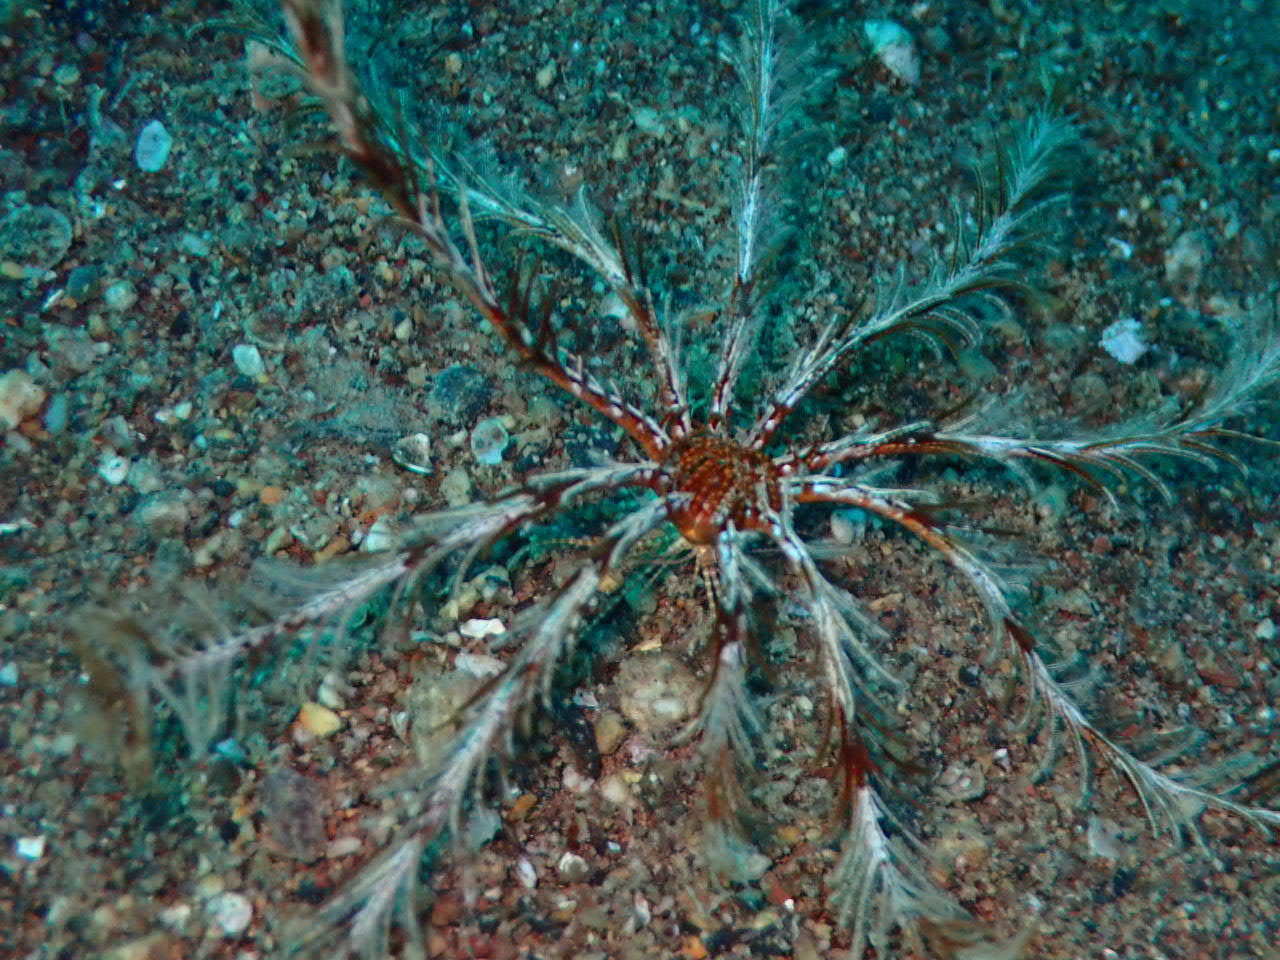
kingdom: Animalia
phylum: Echinodermata
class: Crinoidea
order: Comatulida
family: Antedonidae
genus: Antedon
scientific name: Antedon mediterranea
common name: Feather star
